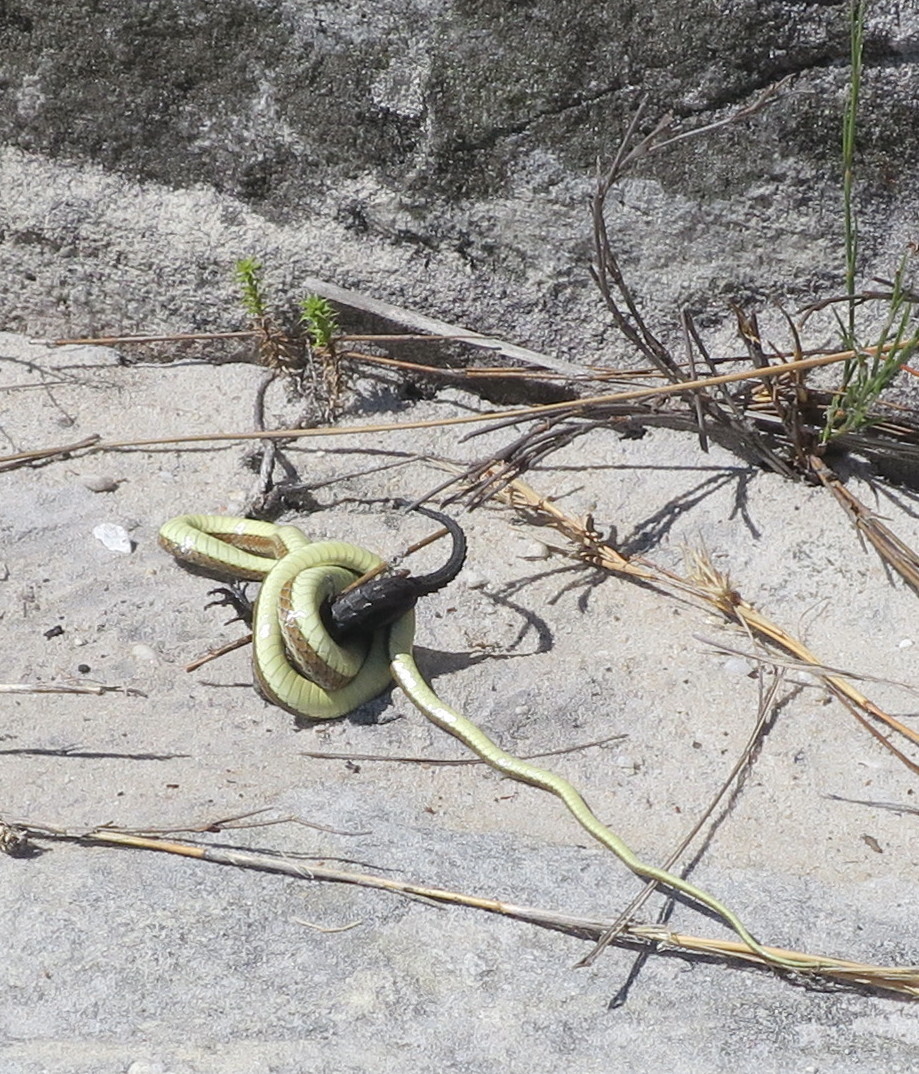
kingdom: Animalia
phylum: Chordata
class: Squamata
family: Cordylidae
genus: Cordylus
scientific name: Cordylus niger
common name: Black girdled lizard
